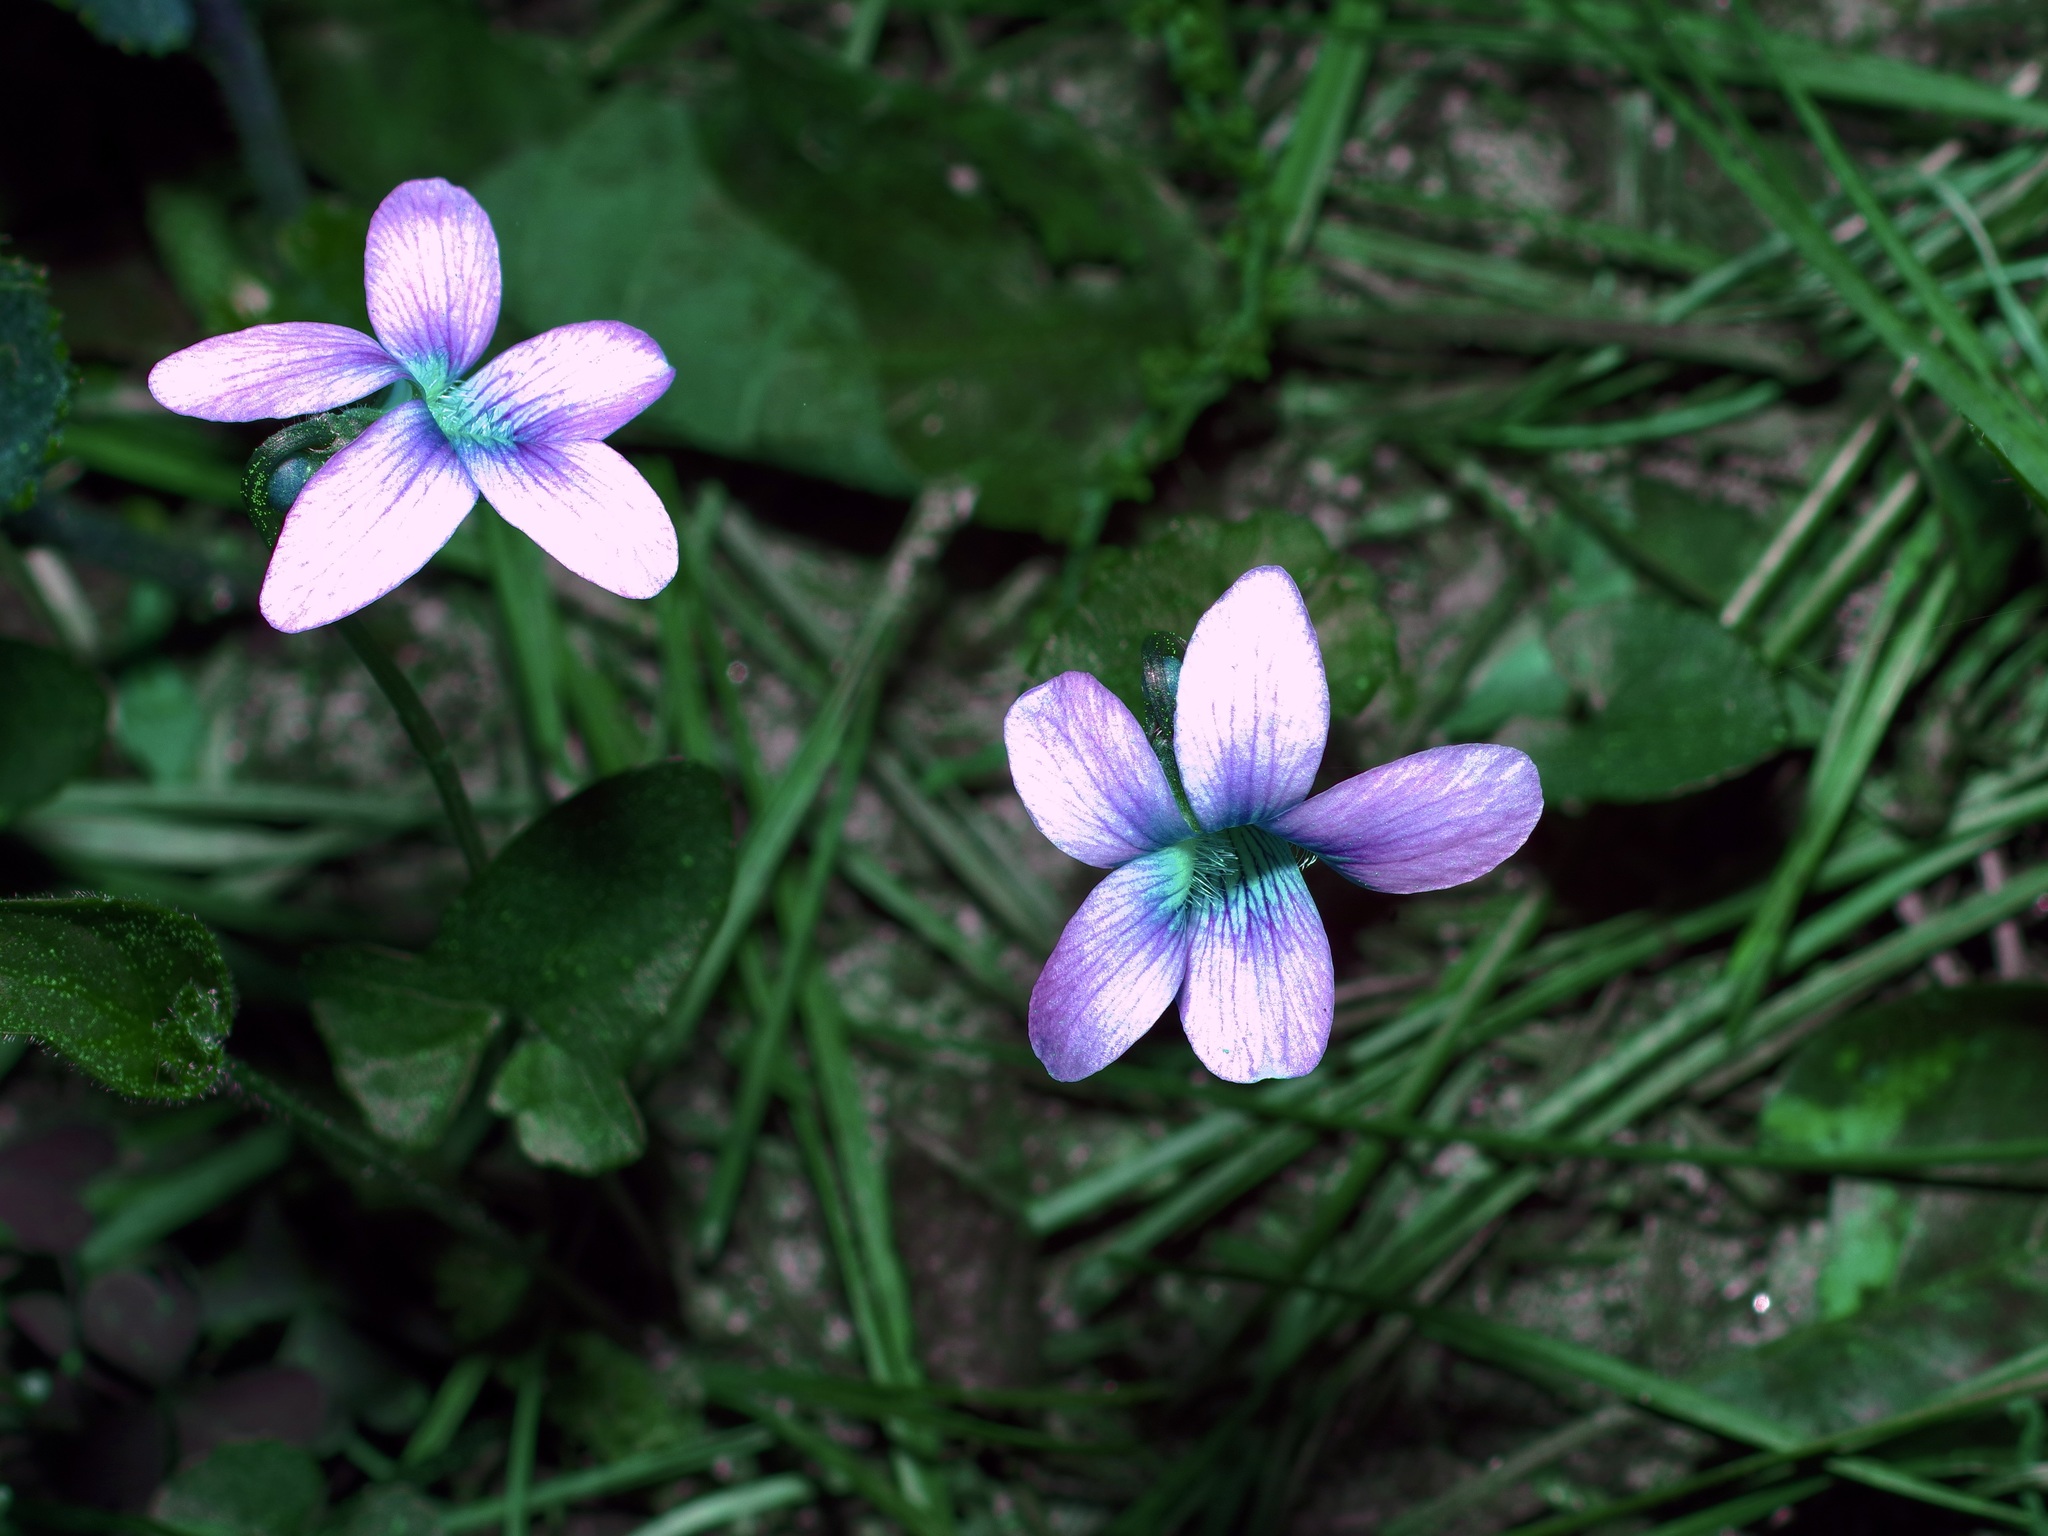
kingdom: Plantae
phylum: Tracheophyta
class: Magnoliopsida
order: Malpighiales
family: Violaceae
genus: Viola
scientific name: Viola palmata
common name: Early blue violet
